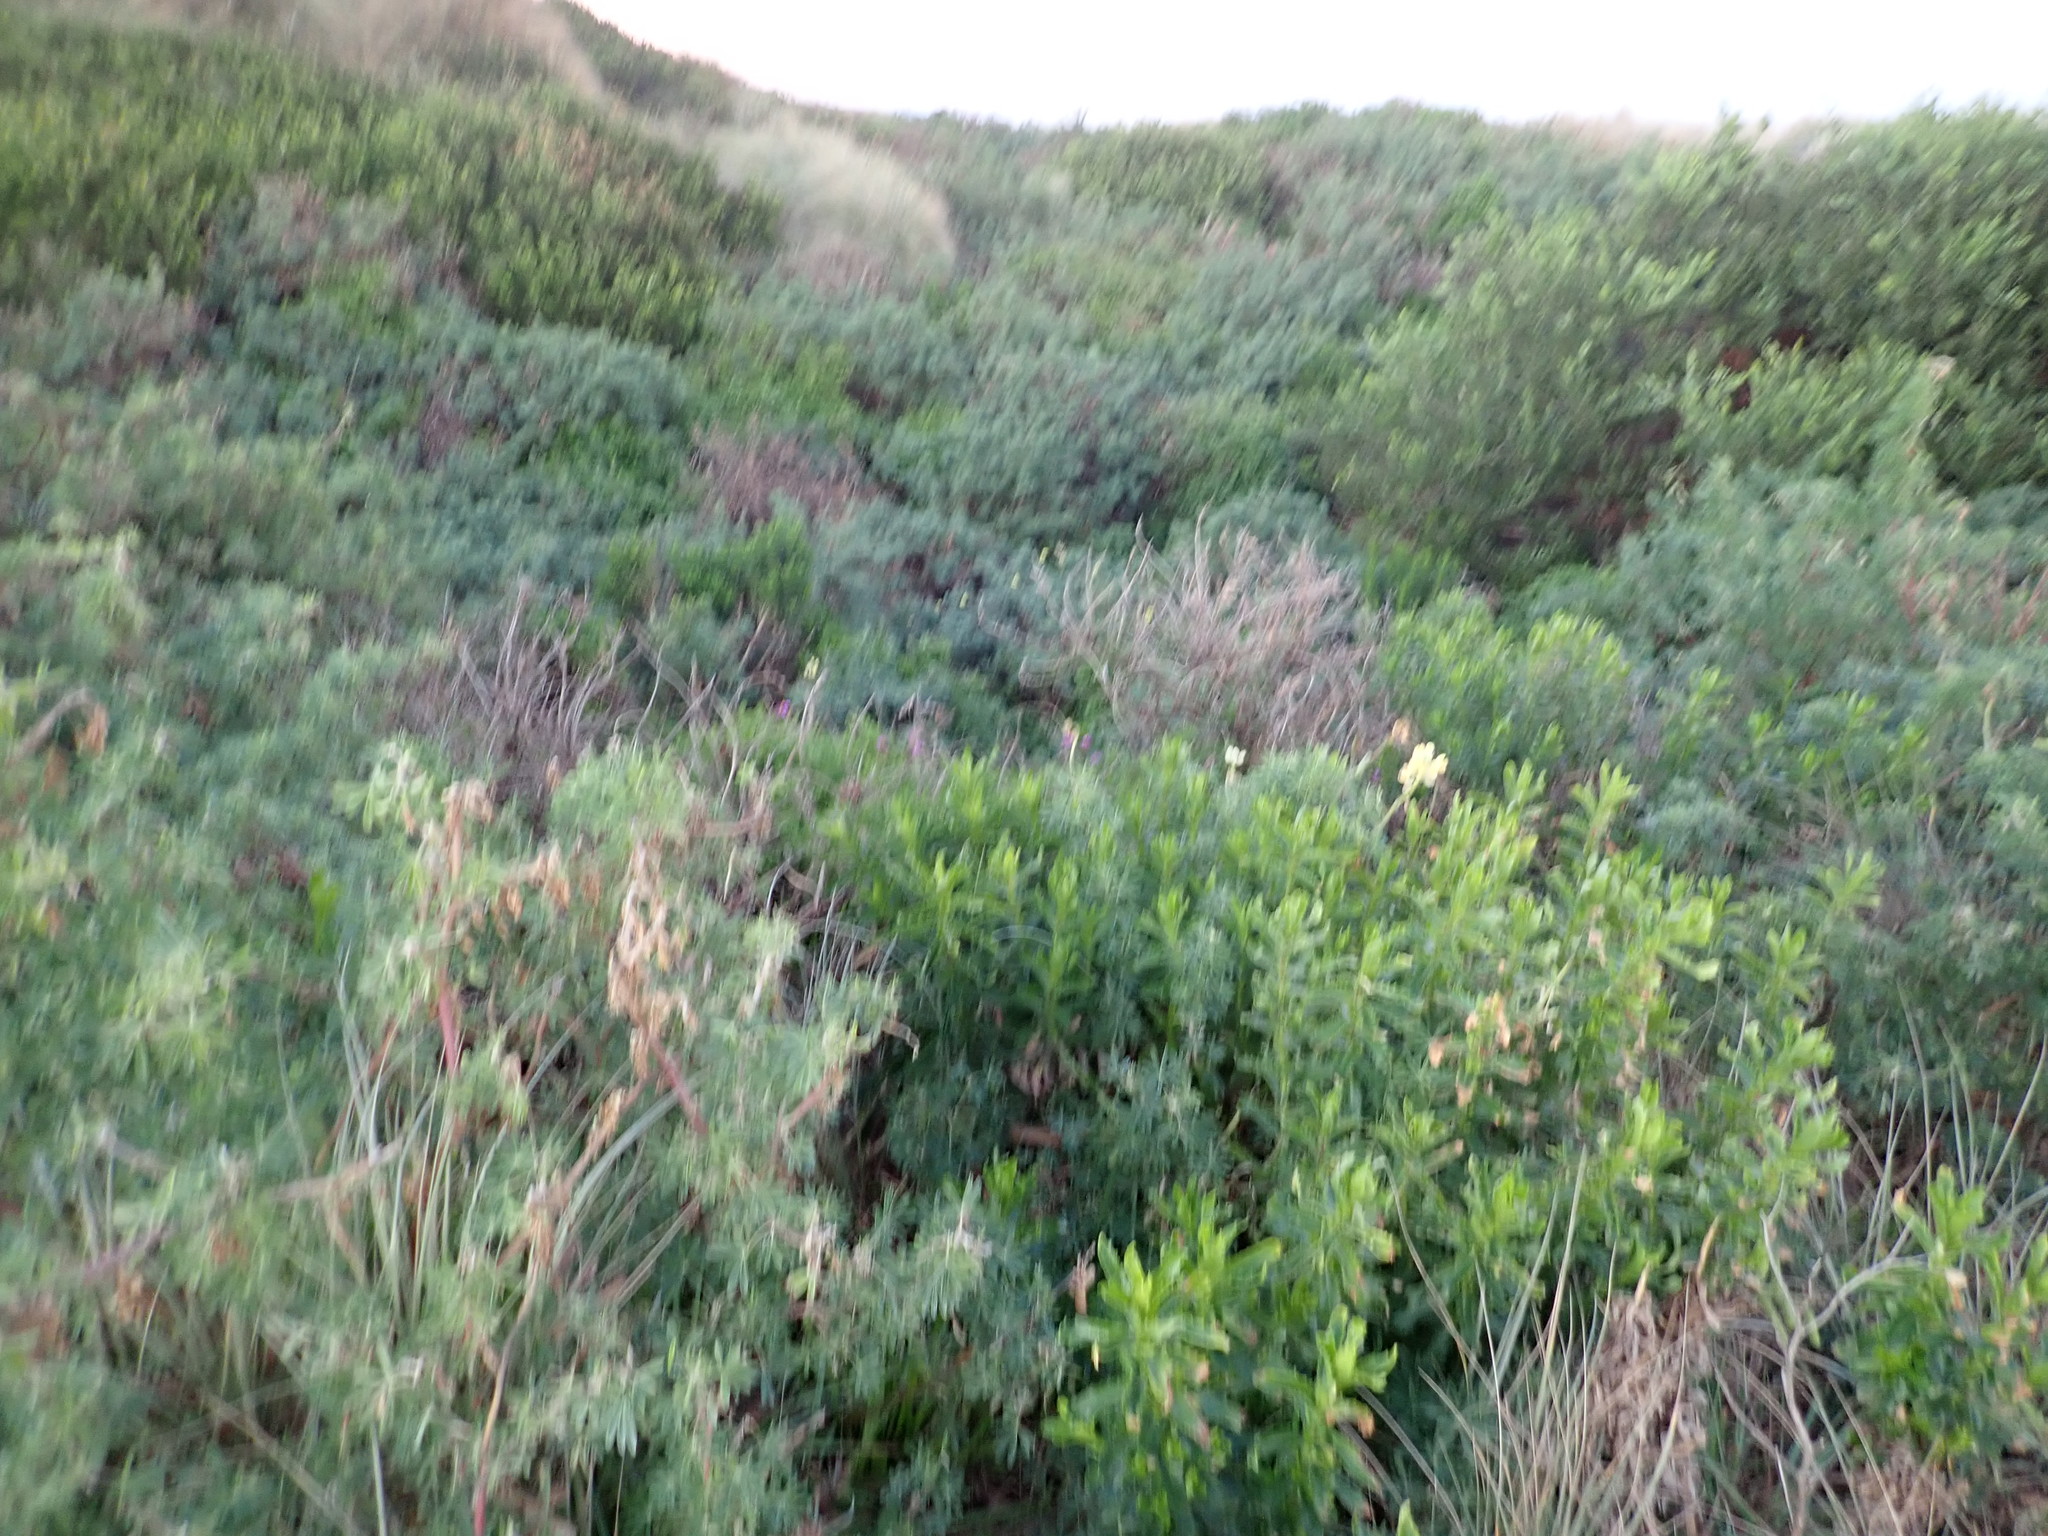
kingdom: Plantae
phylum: Tracheophyta
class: Magnoliopsida
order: Fabales
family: Fabaceae
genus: Lupinus
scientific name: Lupinus arboreus
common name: Yellow bush lupine
